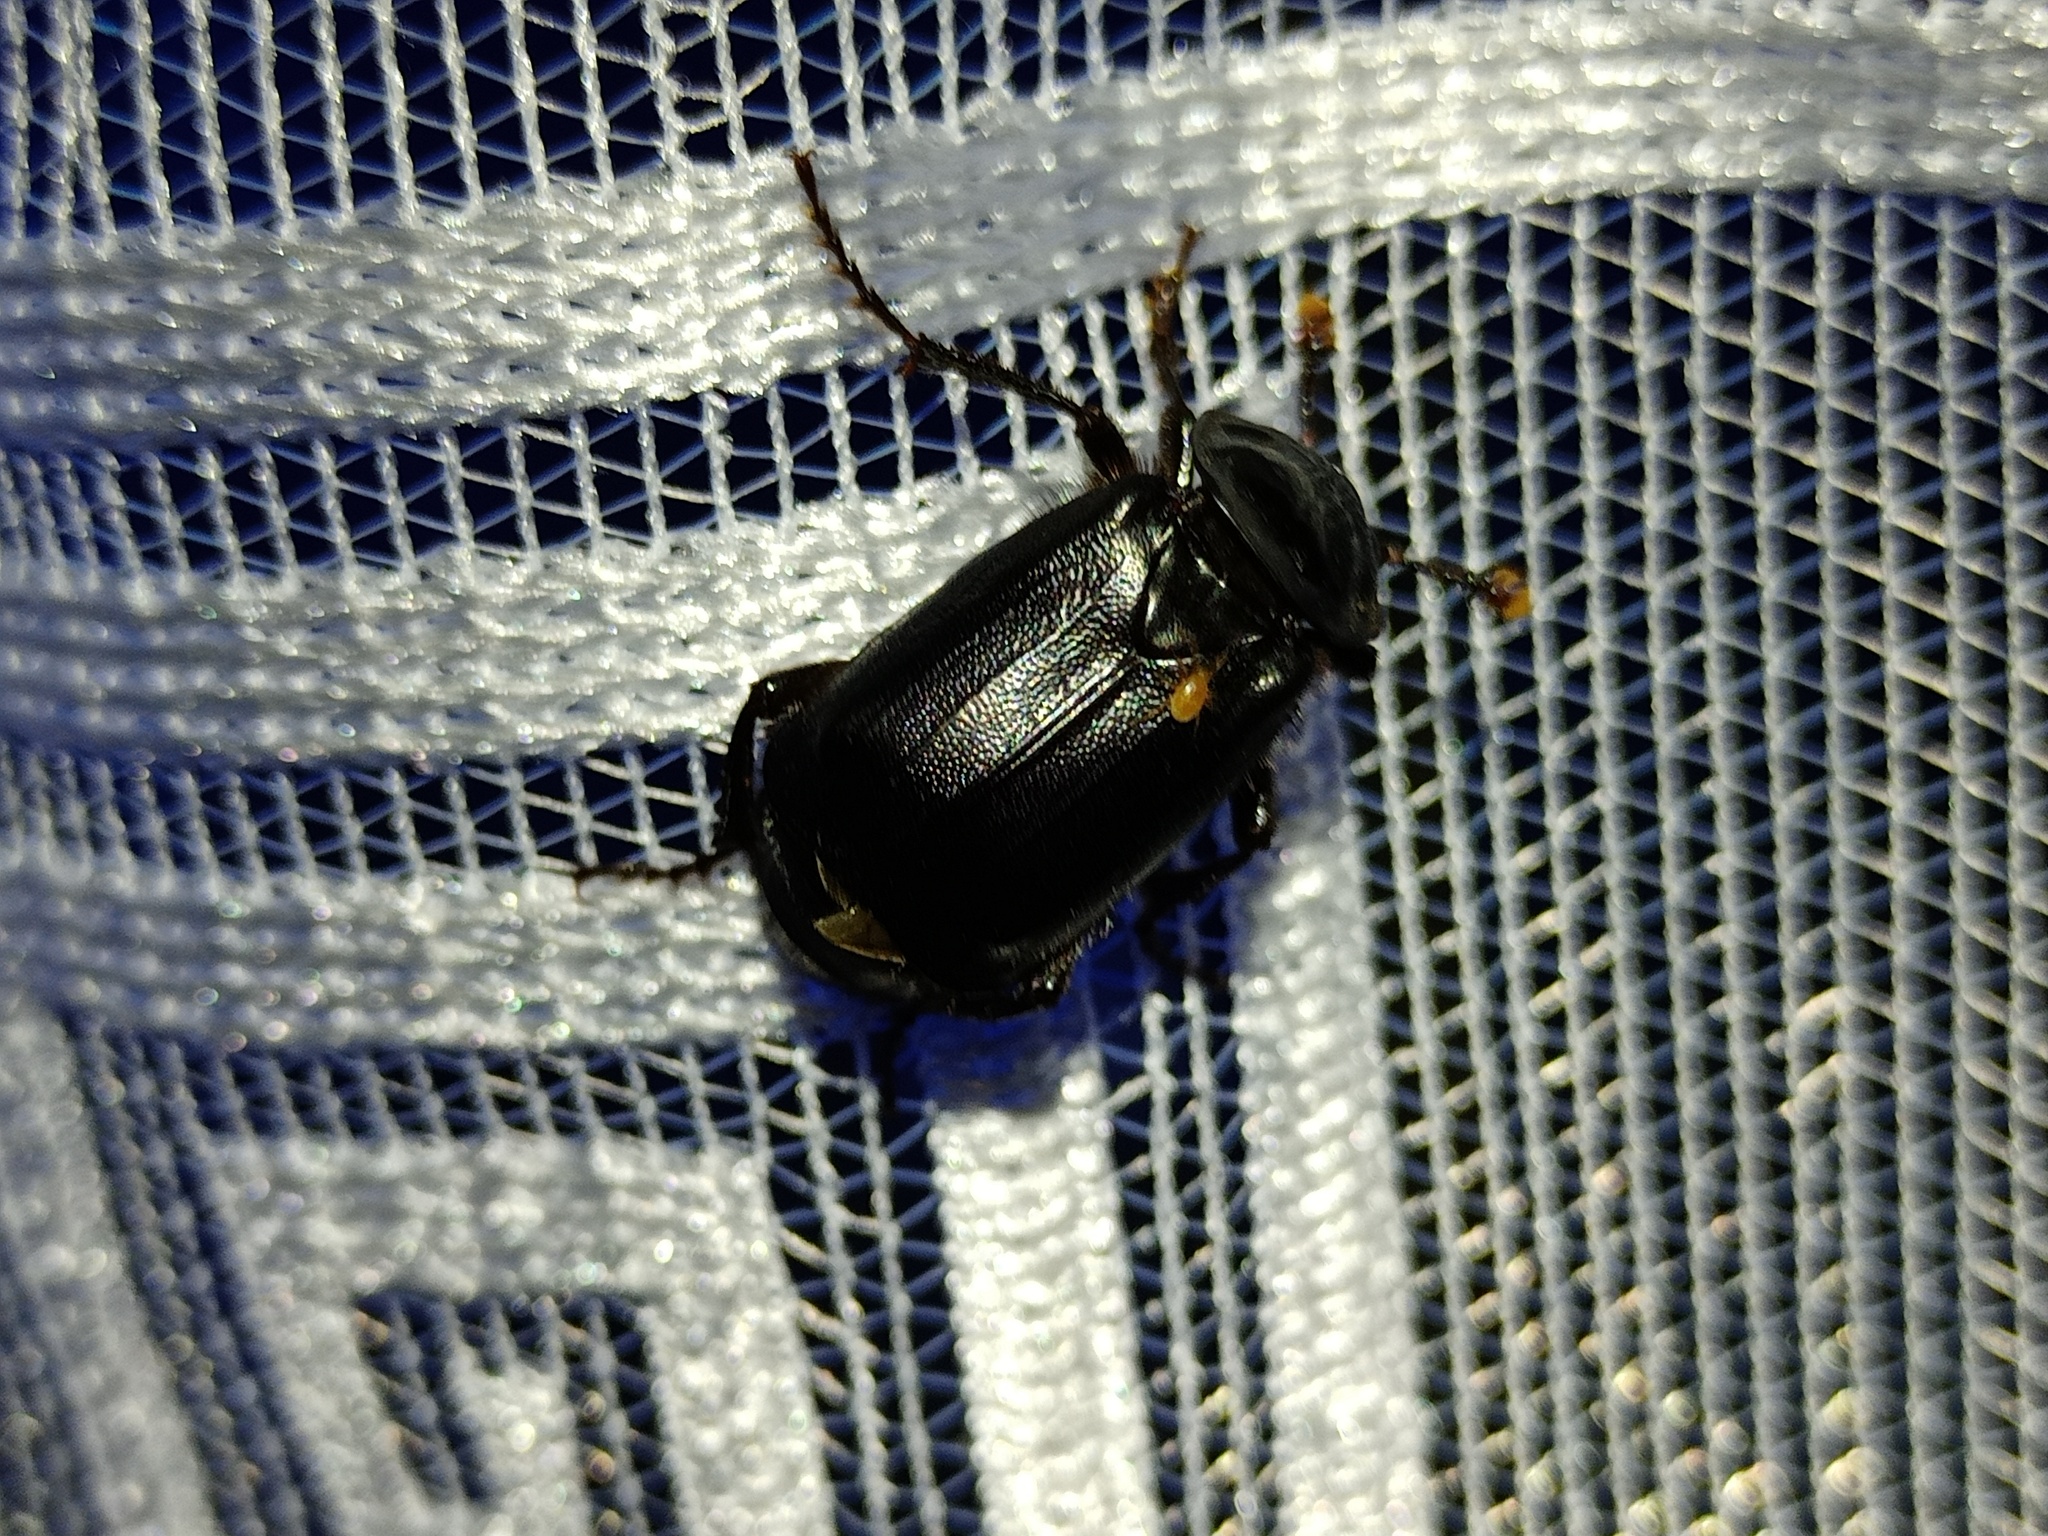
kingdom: Animalia
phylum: Arthropoda
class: Insecta
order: Coleoptera
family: Staphylinidae
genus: Nicrophorus
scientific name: Nicrophorus humator
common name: Black sexton beetle
